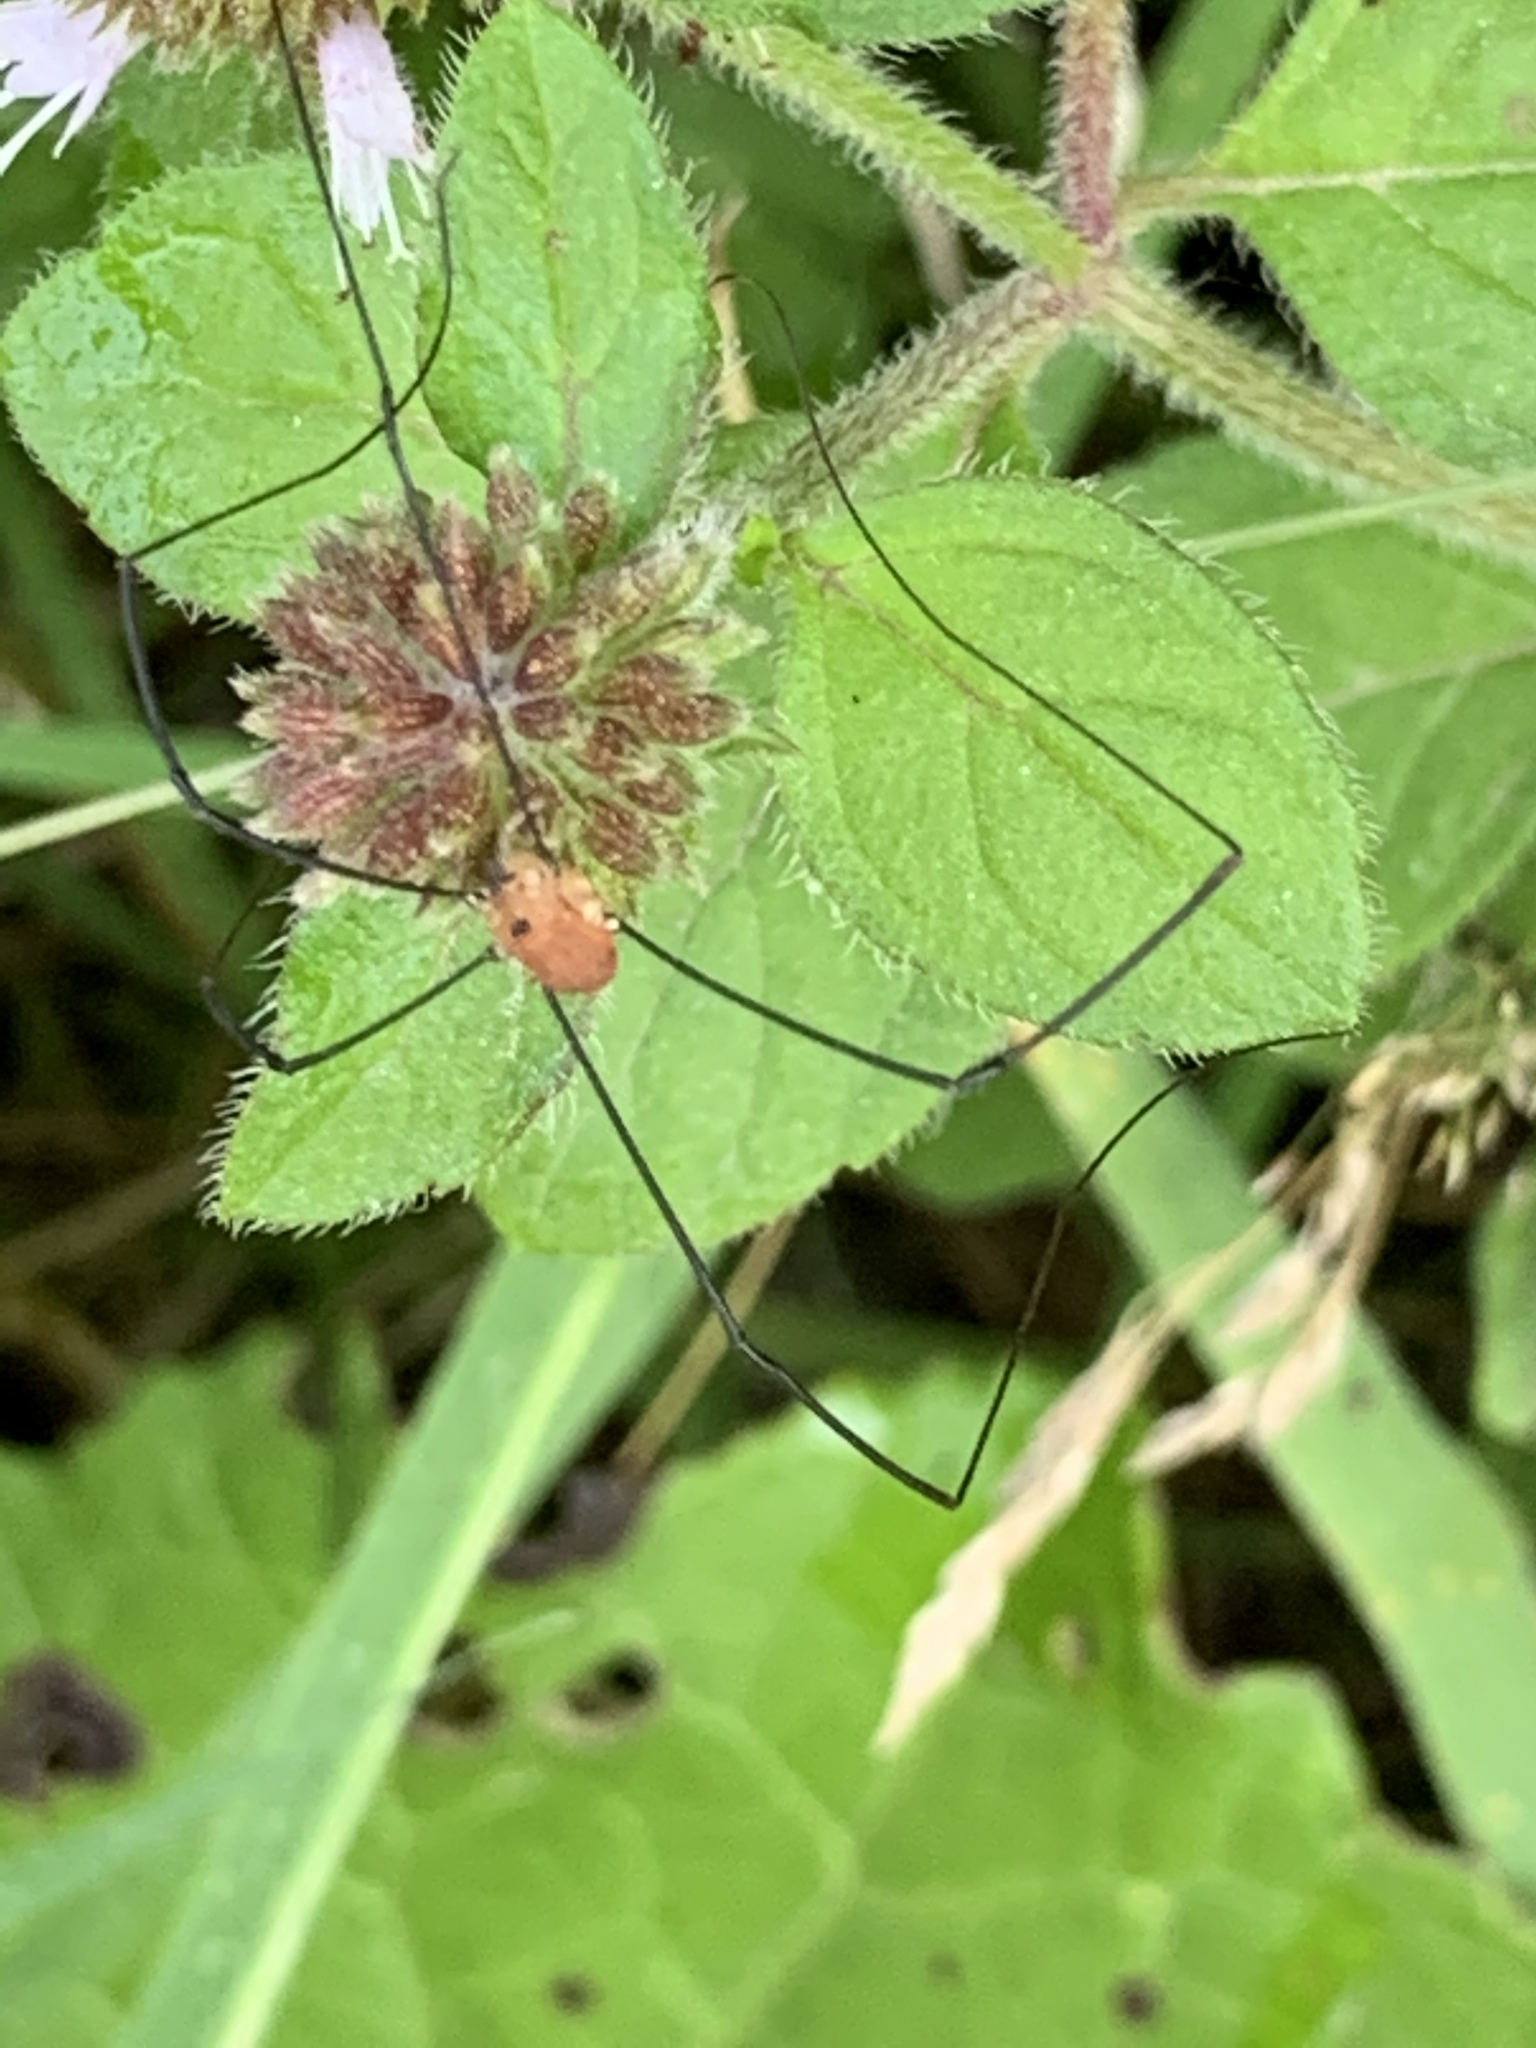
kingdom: Animalia
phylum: Arthropoda
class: Arachnida
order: Opiliones
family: Sclerosomatidae
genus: Leiobunum
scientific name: Leiobunum rotundum
